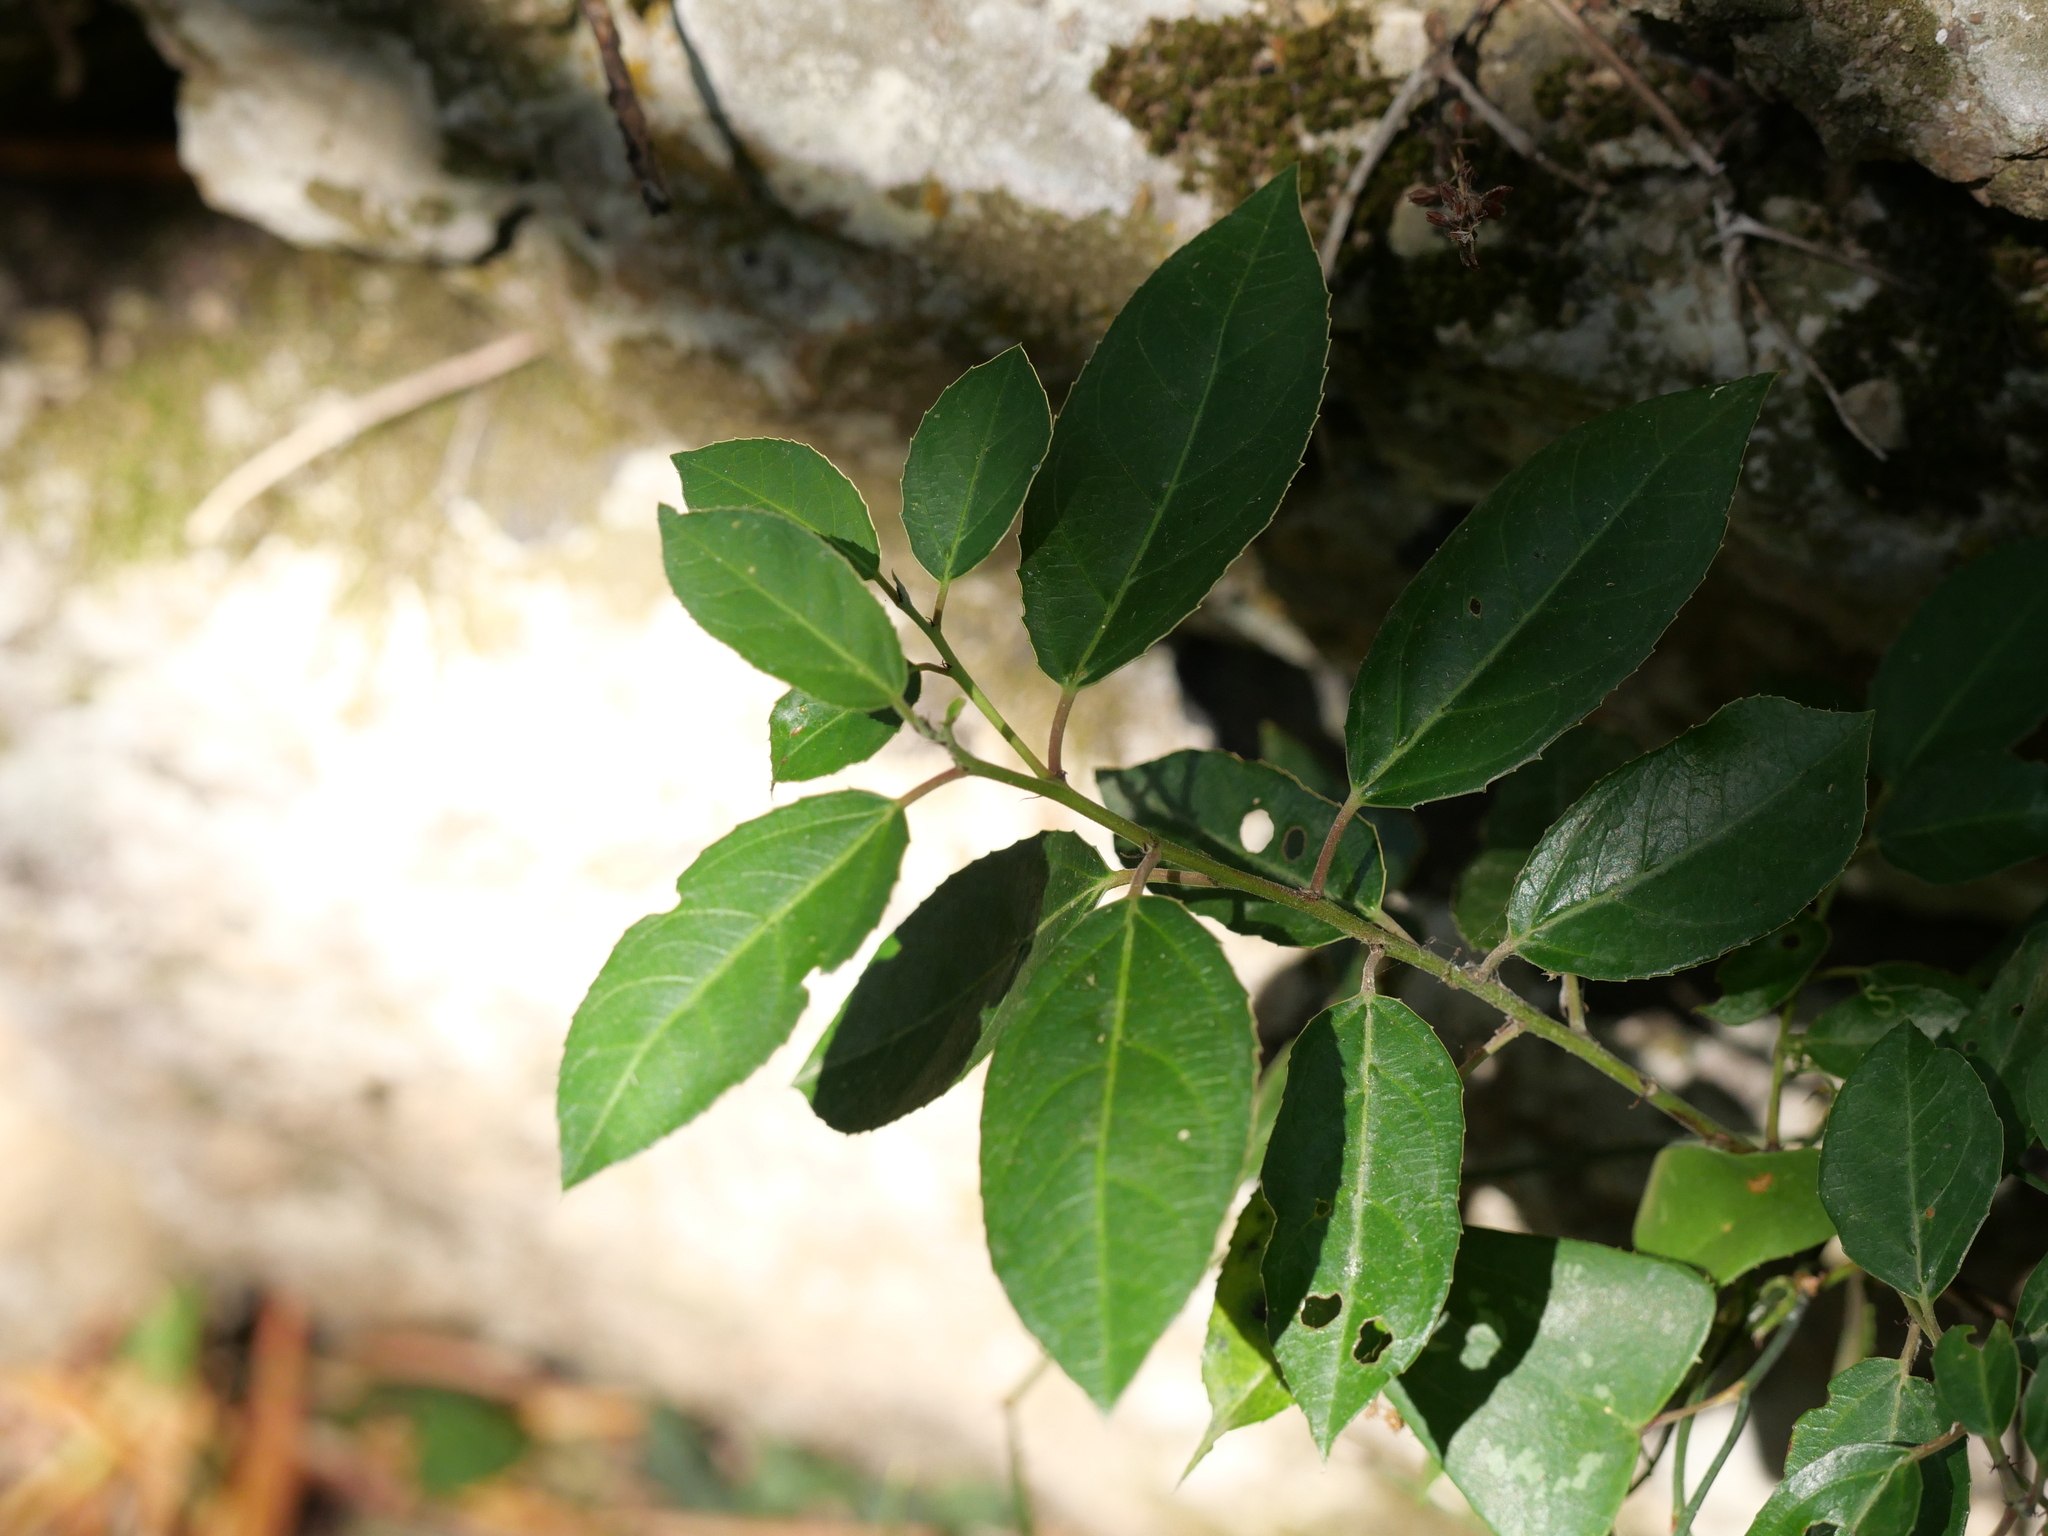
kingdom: Plantae
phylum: Tracheophyta
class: Magnoliopsida
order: Rosales
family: Rhamnaceae
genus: Rhamnus
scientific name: Rhamnus alaternus
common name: Mediterranean buckthorn
